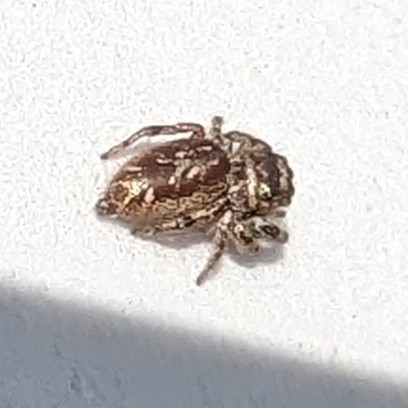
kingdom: Animalia
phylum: Arthropoda
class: Arachnida
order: Araneae
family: Salticidae
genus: Eris
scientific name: Eris militaris
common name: Bronze jumper
